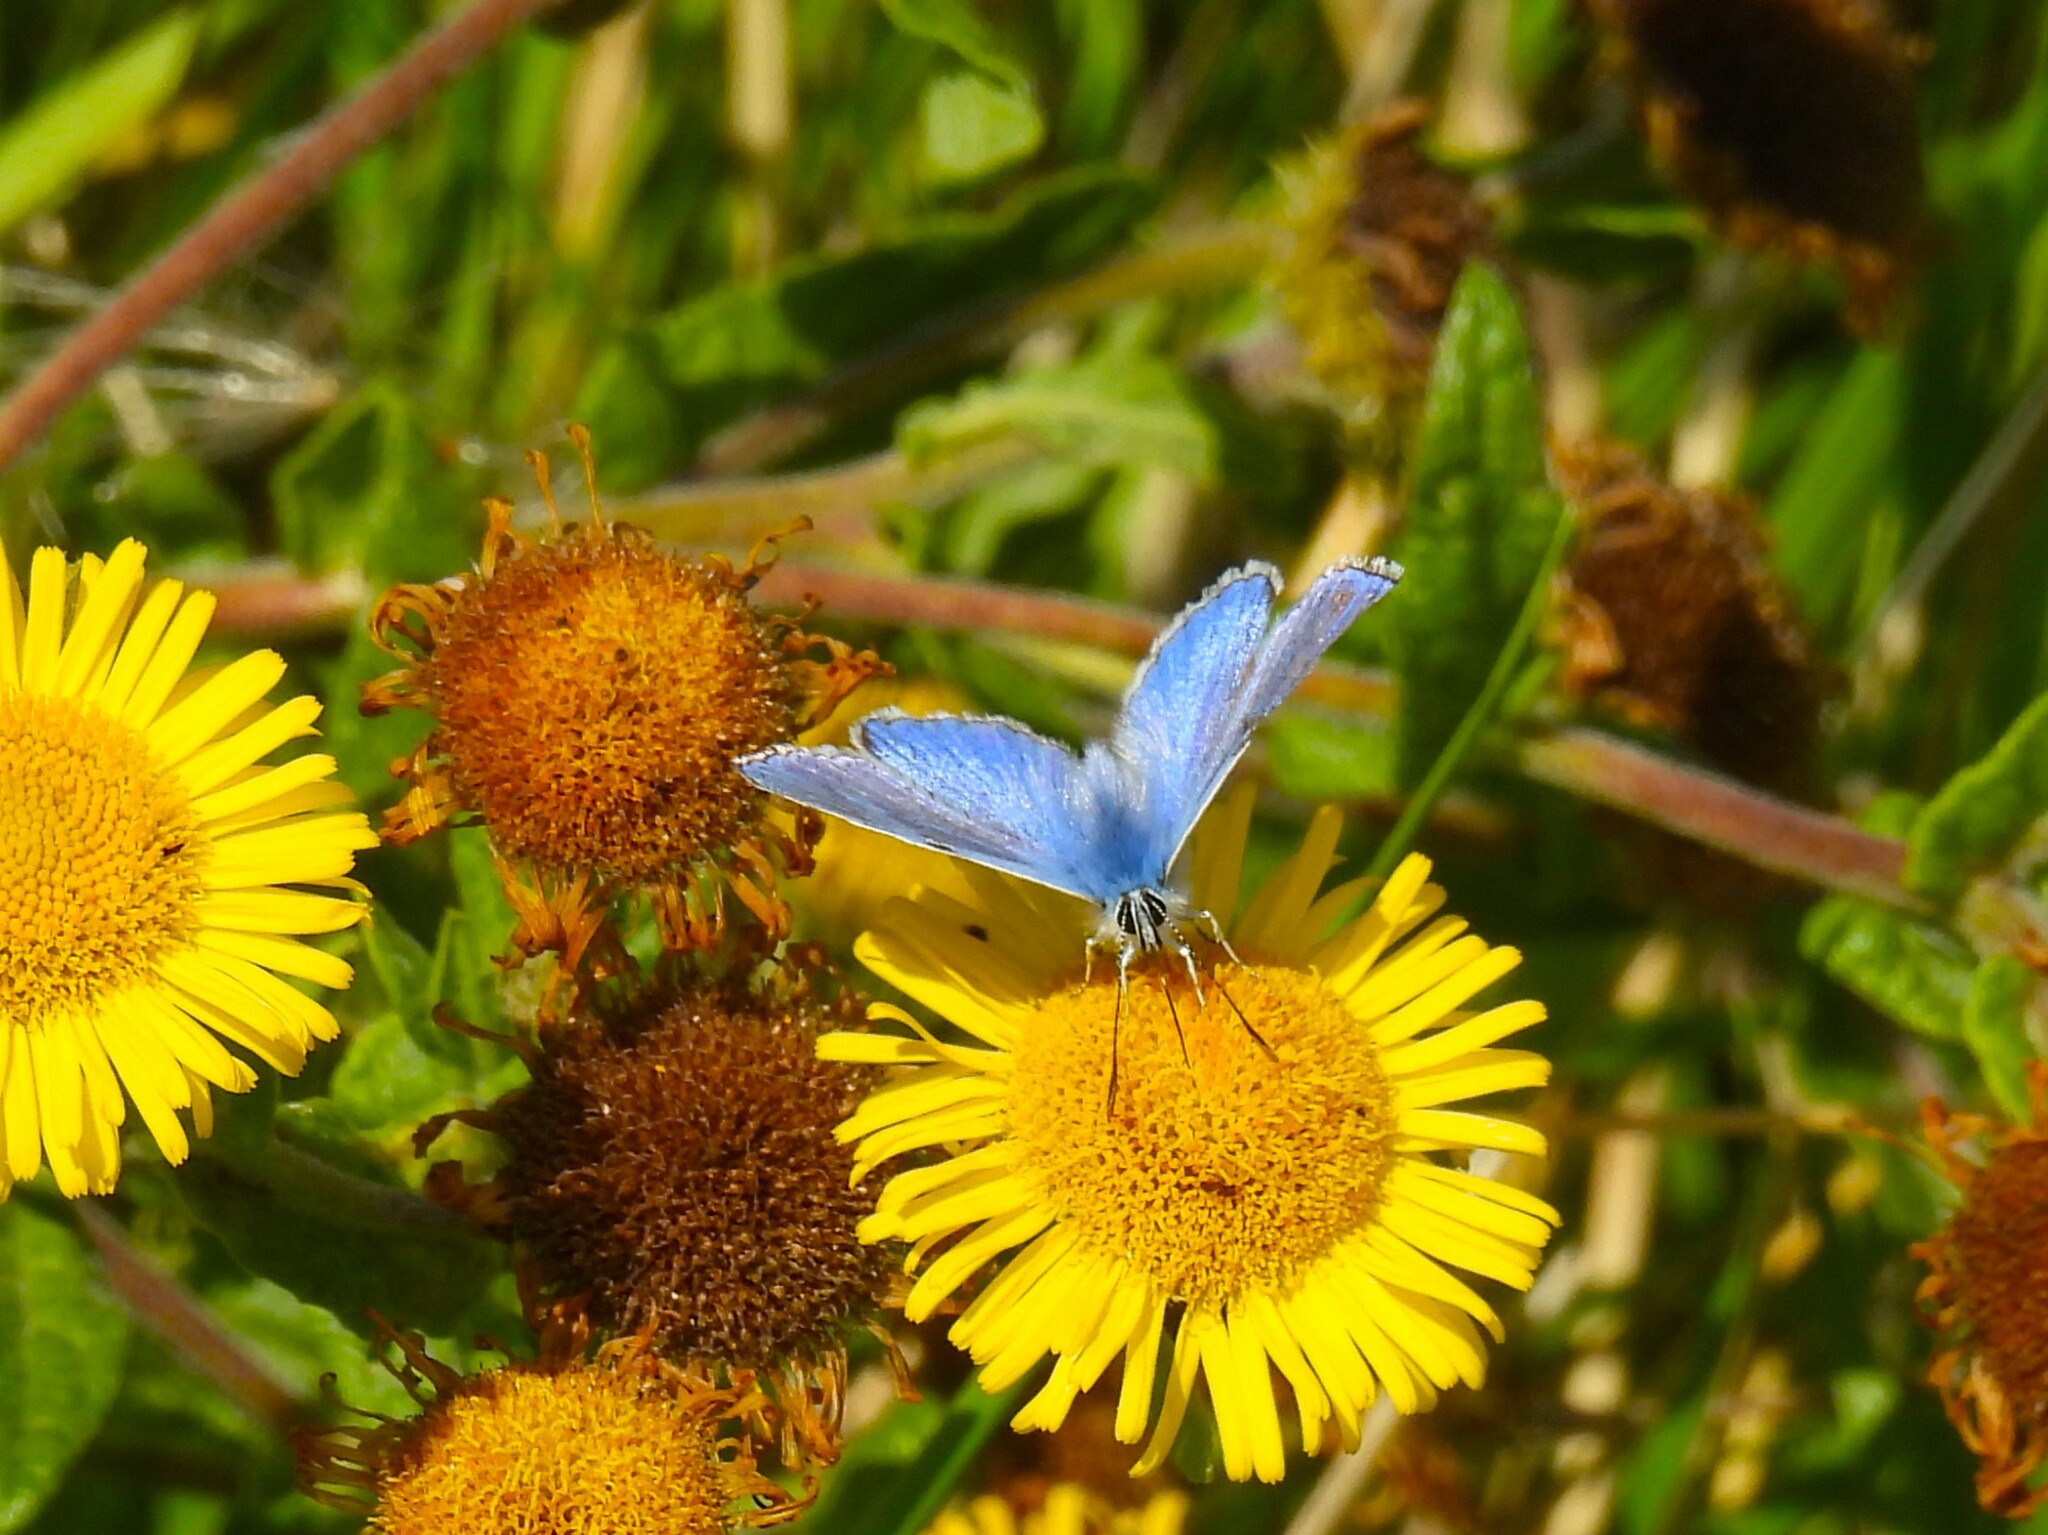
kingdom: Animalia
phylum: Arthropoda
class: Insecta
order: Lepidoptera
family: Lycaenidae
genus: Polyommatus
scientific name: Polyommatus icarus
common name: Common blue
